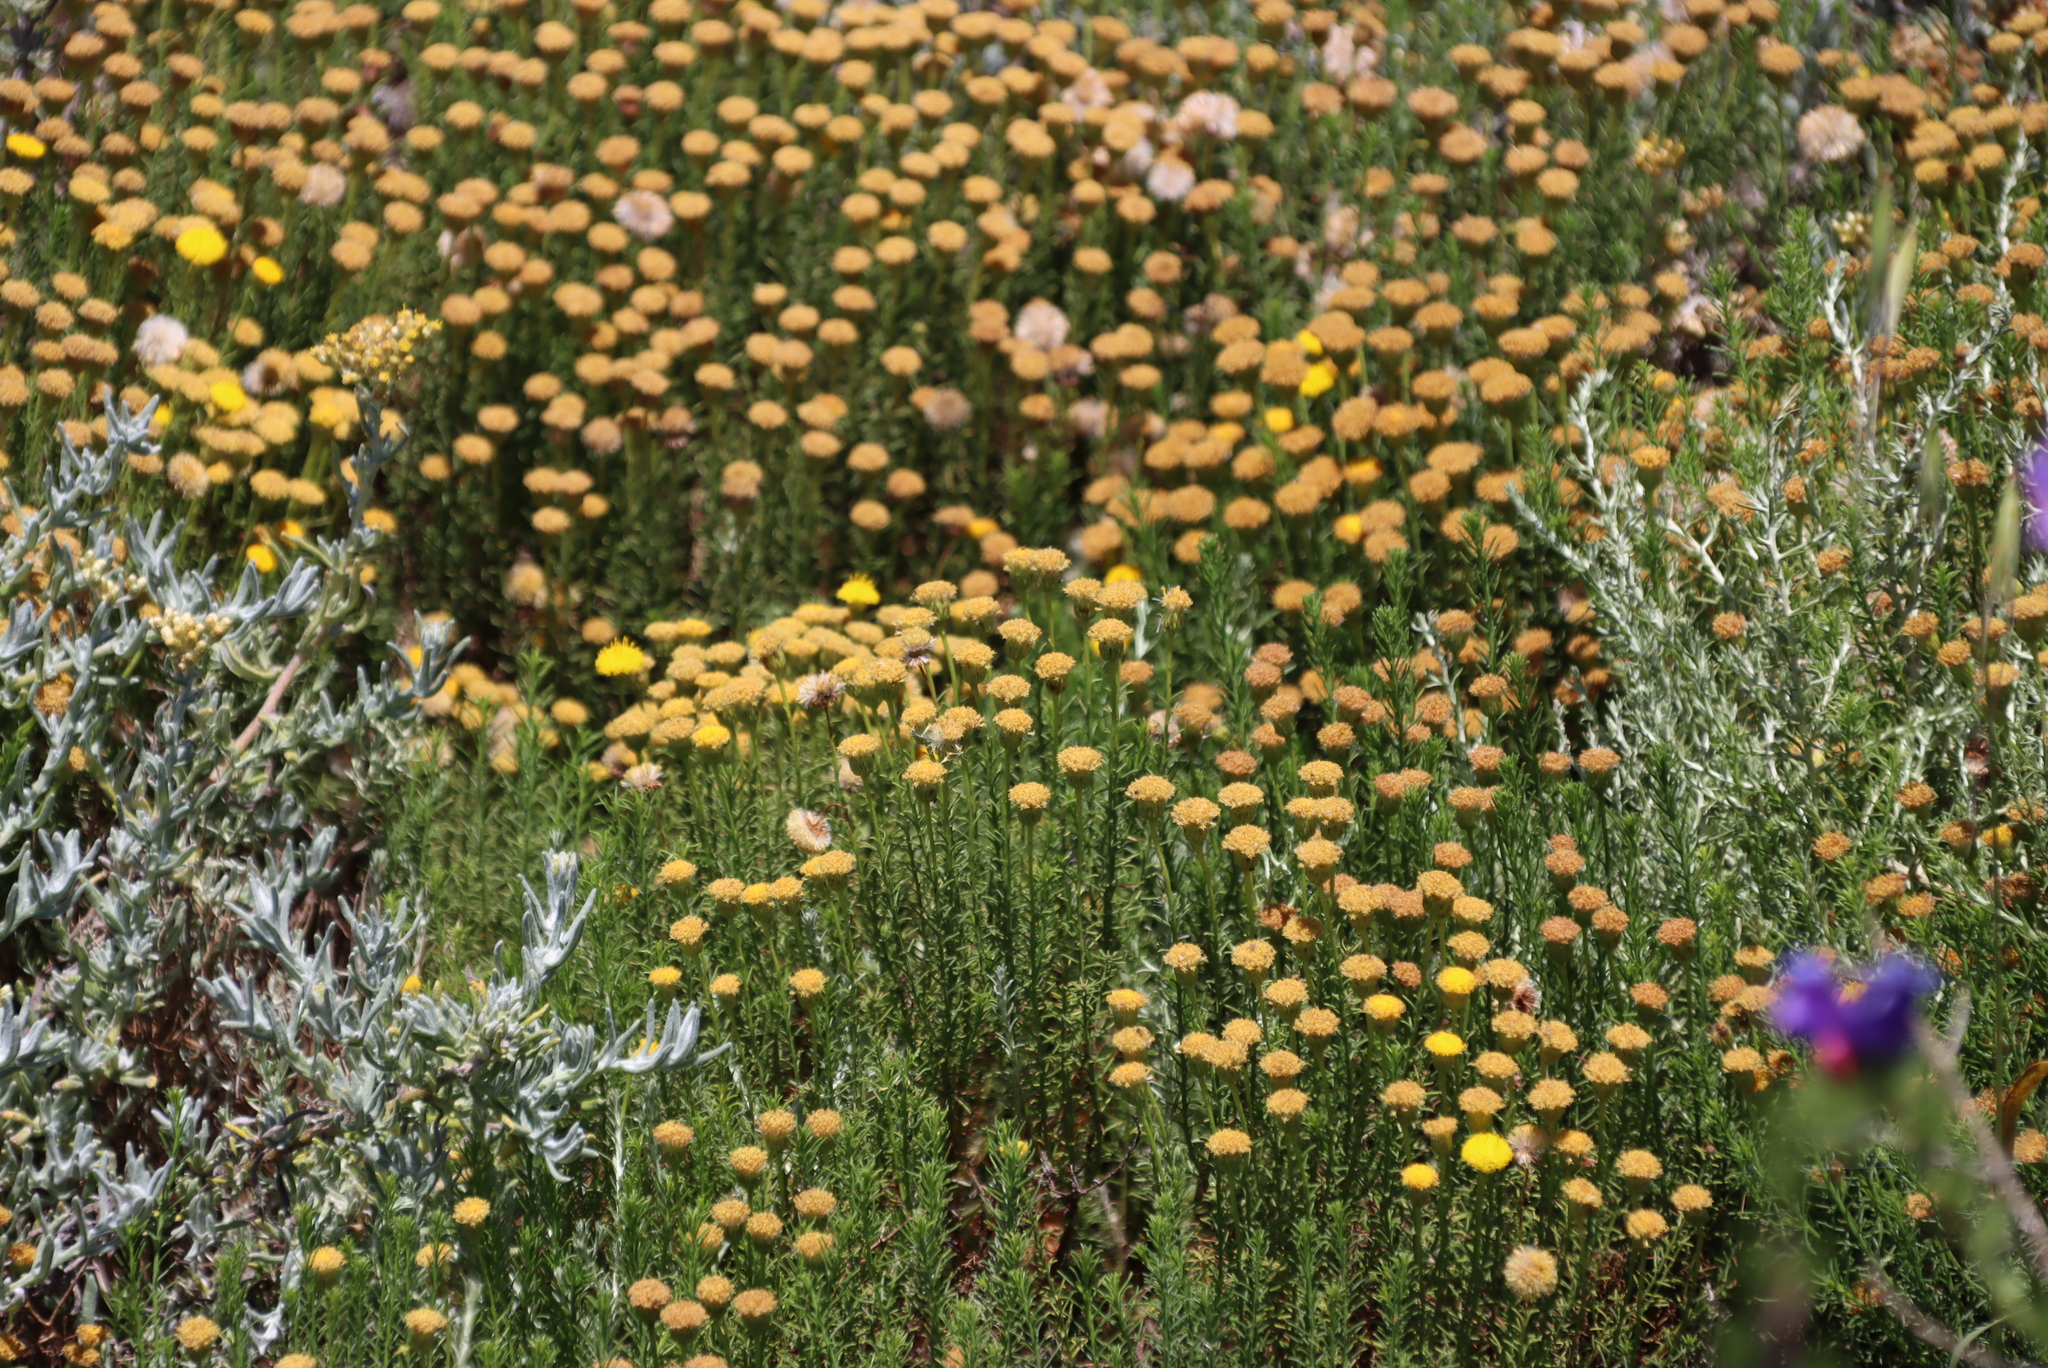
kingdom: Plantae
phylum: Tracheophyta
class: Magnoliopsida
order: Asterales
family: Asteraceae
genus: Chrysocoma
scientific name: Chrysocoma ciliata
